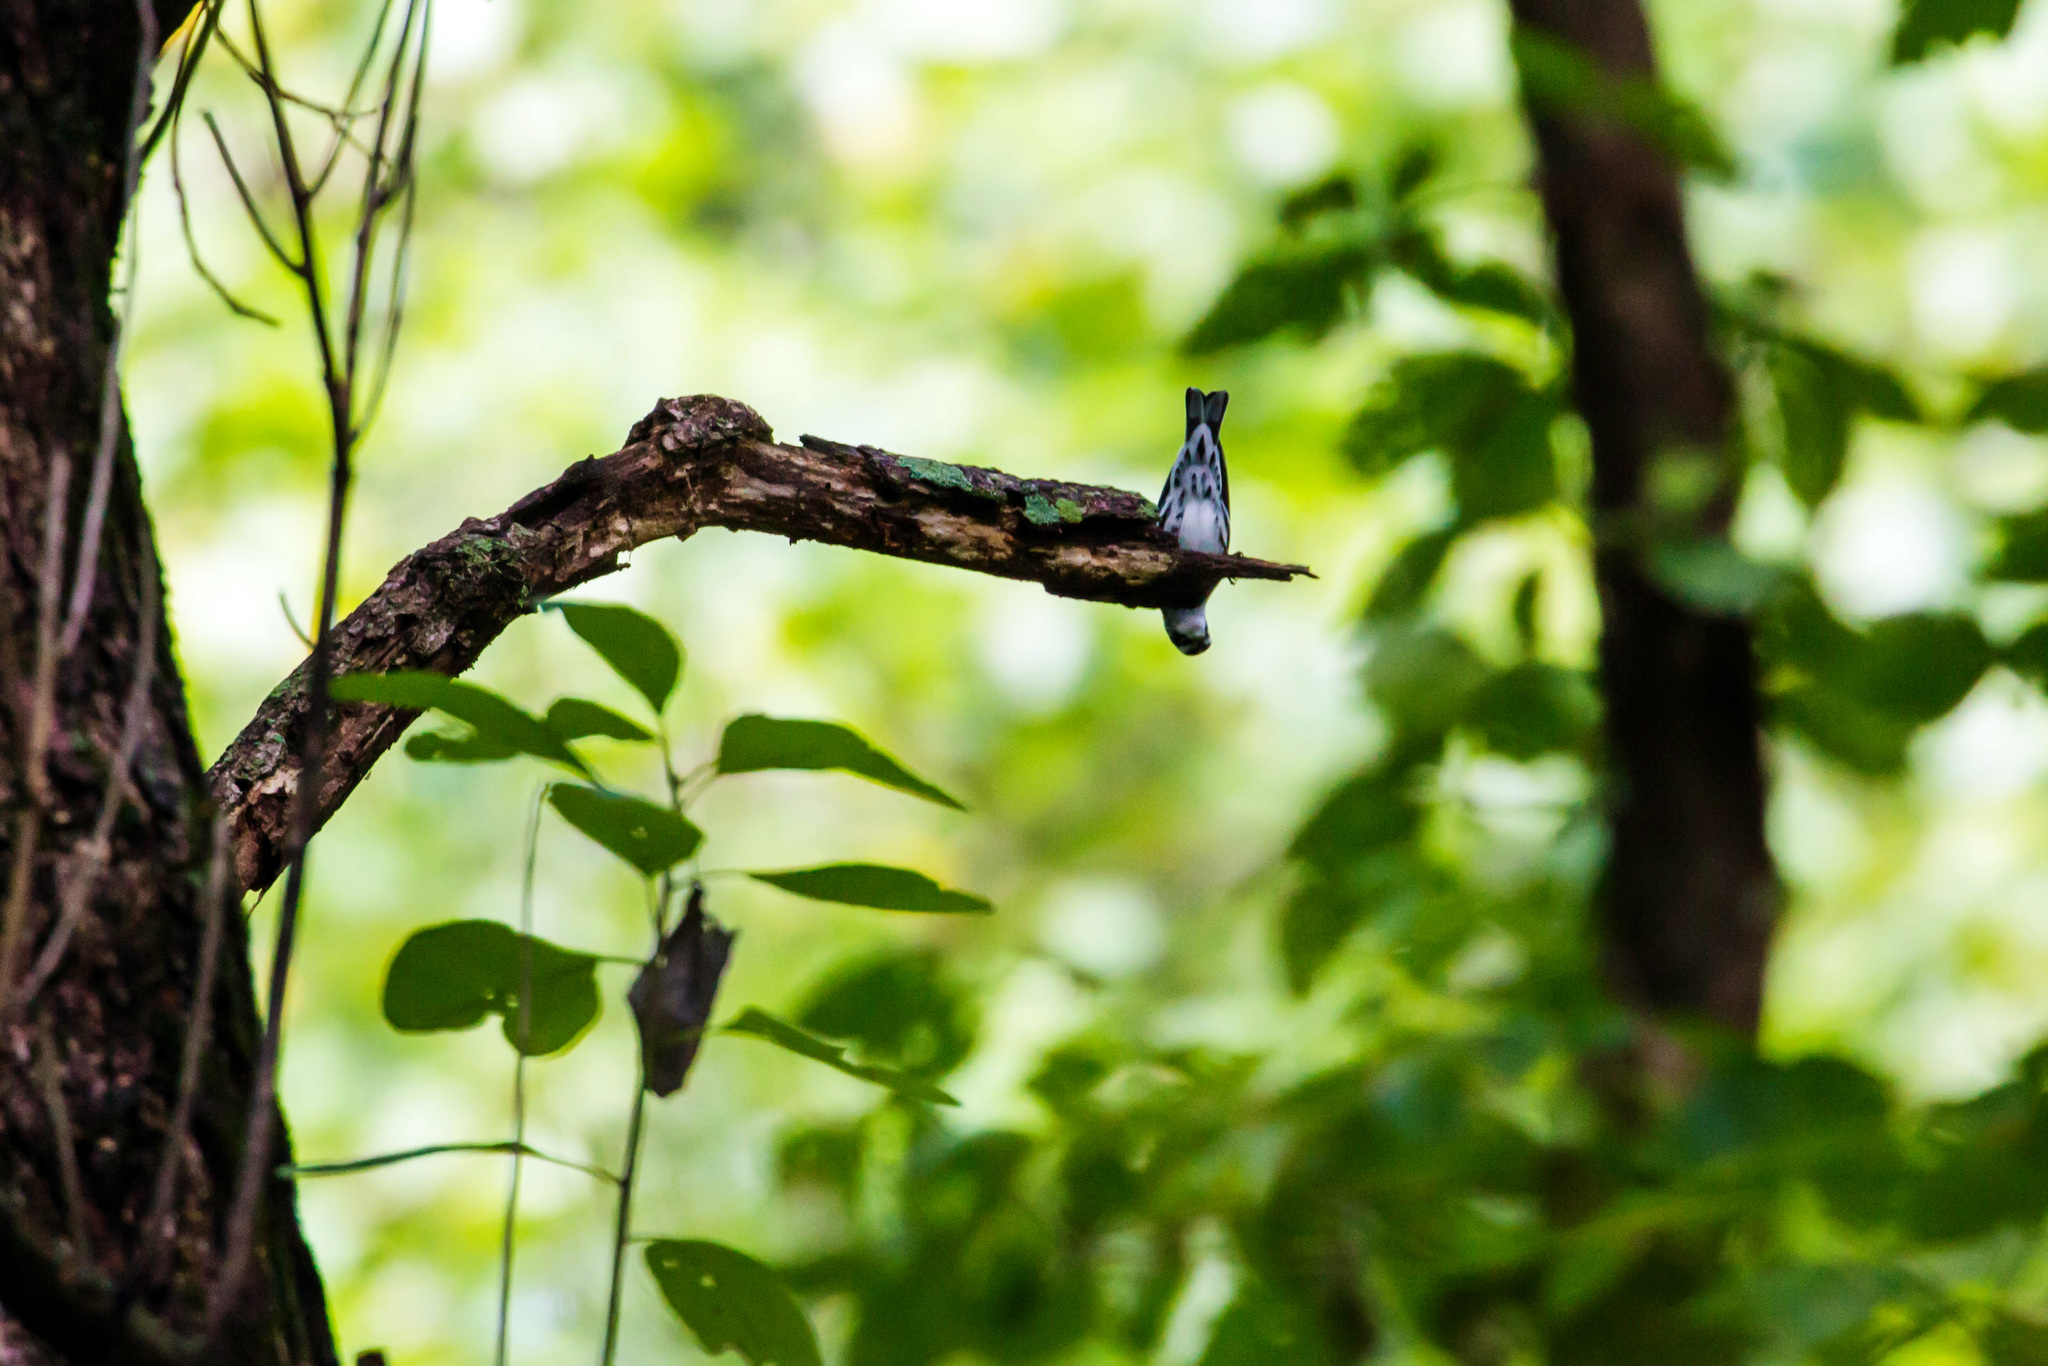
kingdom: Animalia
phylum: Chordata
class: Aves
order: Passeriformes
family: Parulidae
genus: Mniotilta
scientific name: Mniotilta varia
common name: Black-and-white warbler
